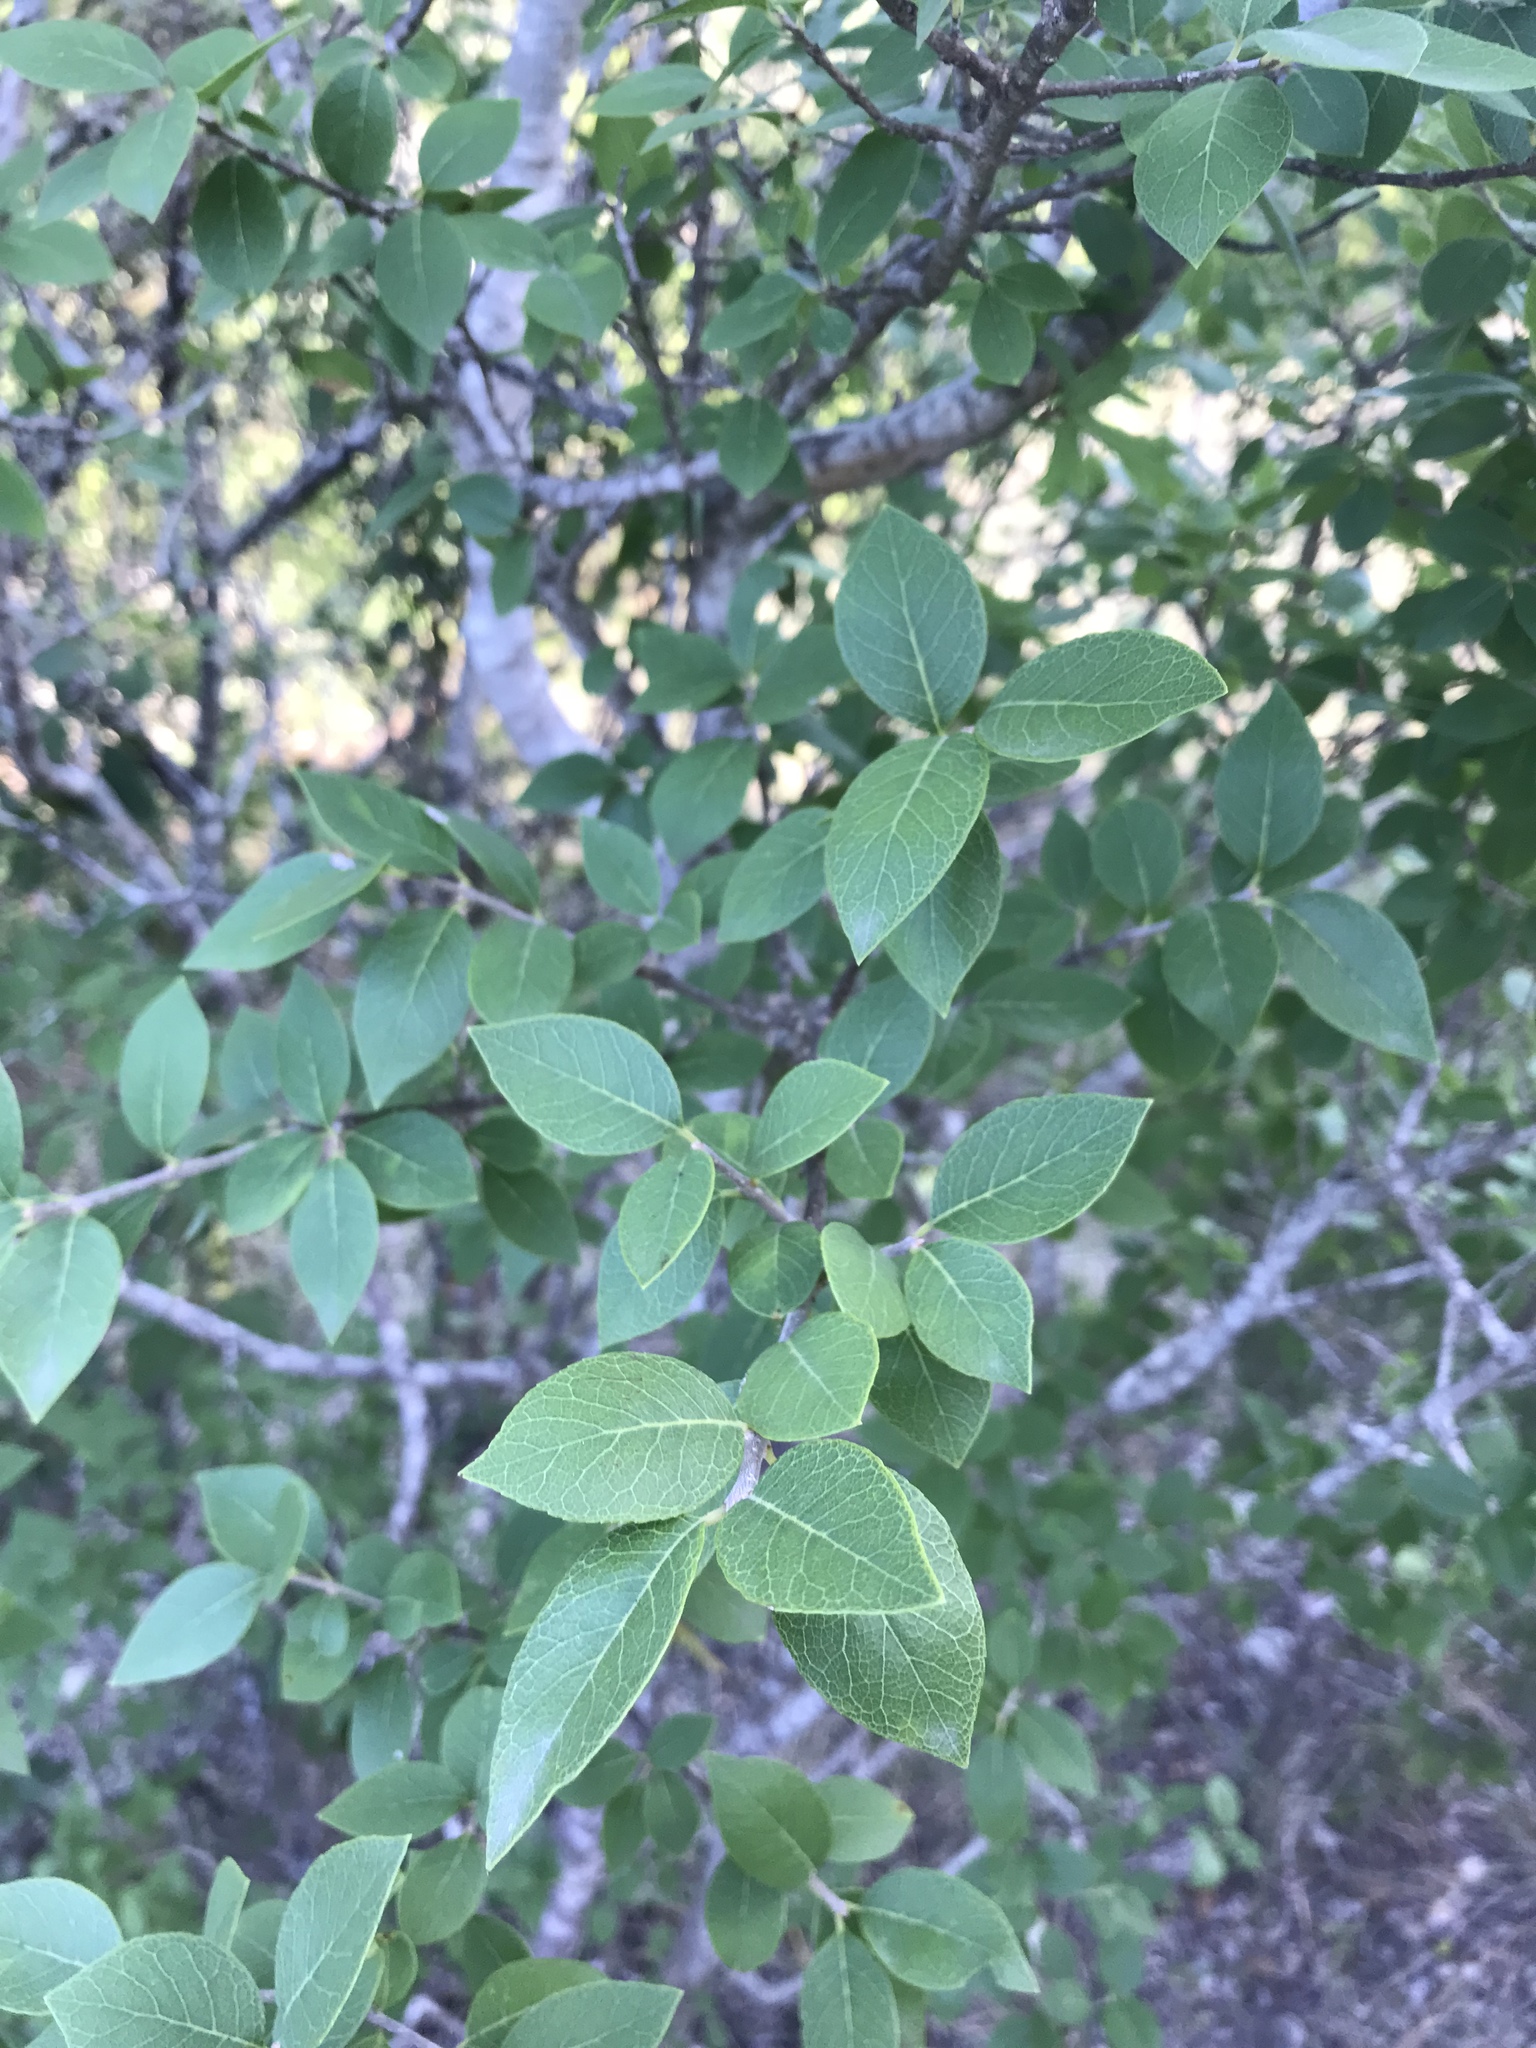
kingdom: Plantae
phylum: Tracheophyta
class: Magnoliopsida
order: Lamiales
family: Oleaceae
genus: Forestiera
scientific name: Forestiera reticulata
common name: Netleaf swamp-privet
